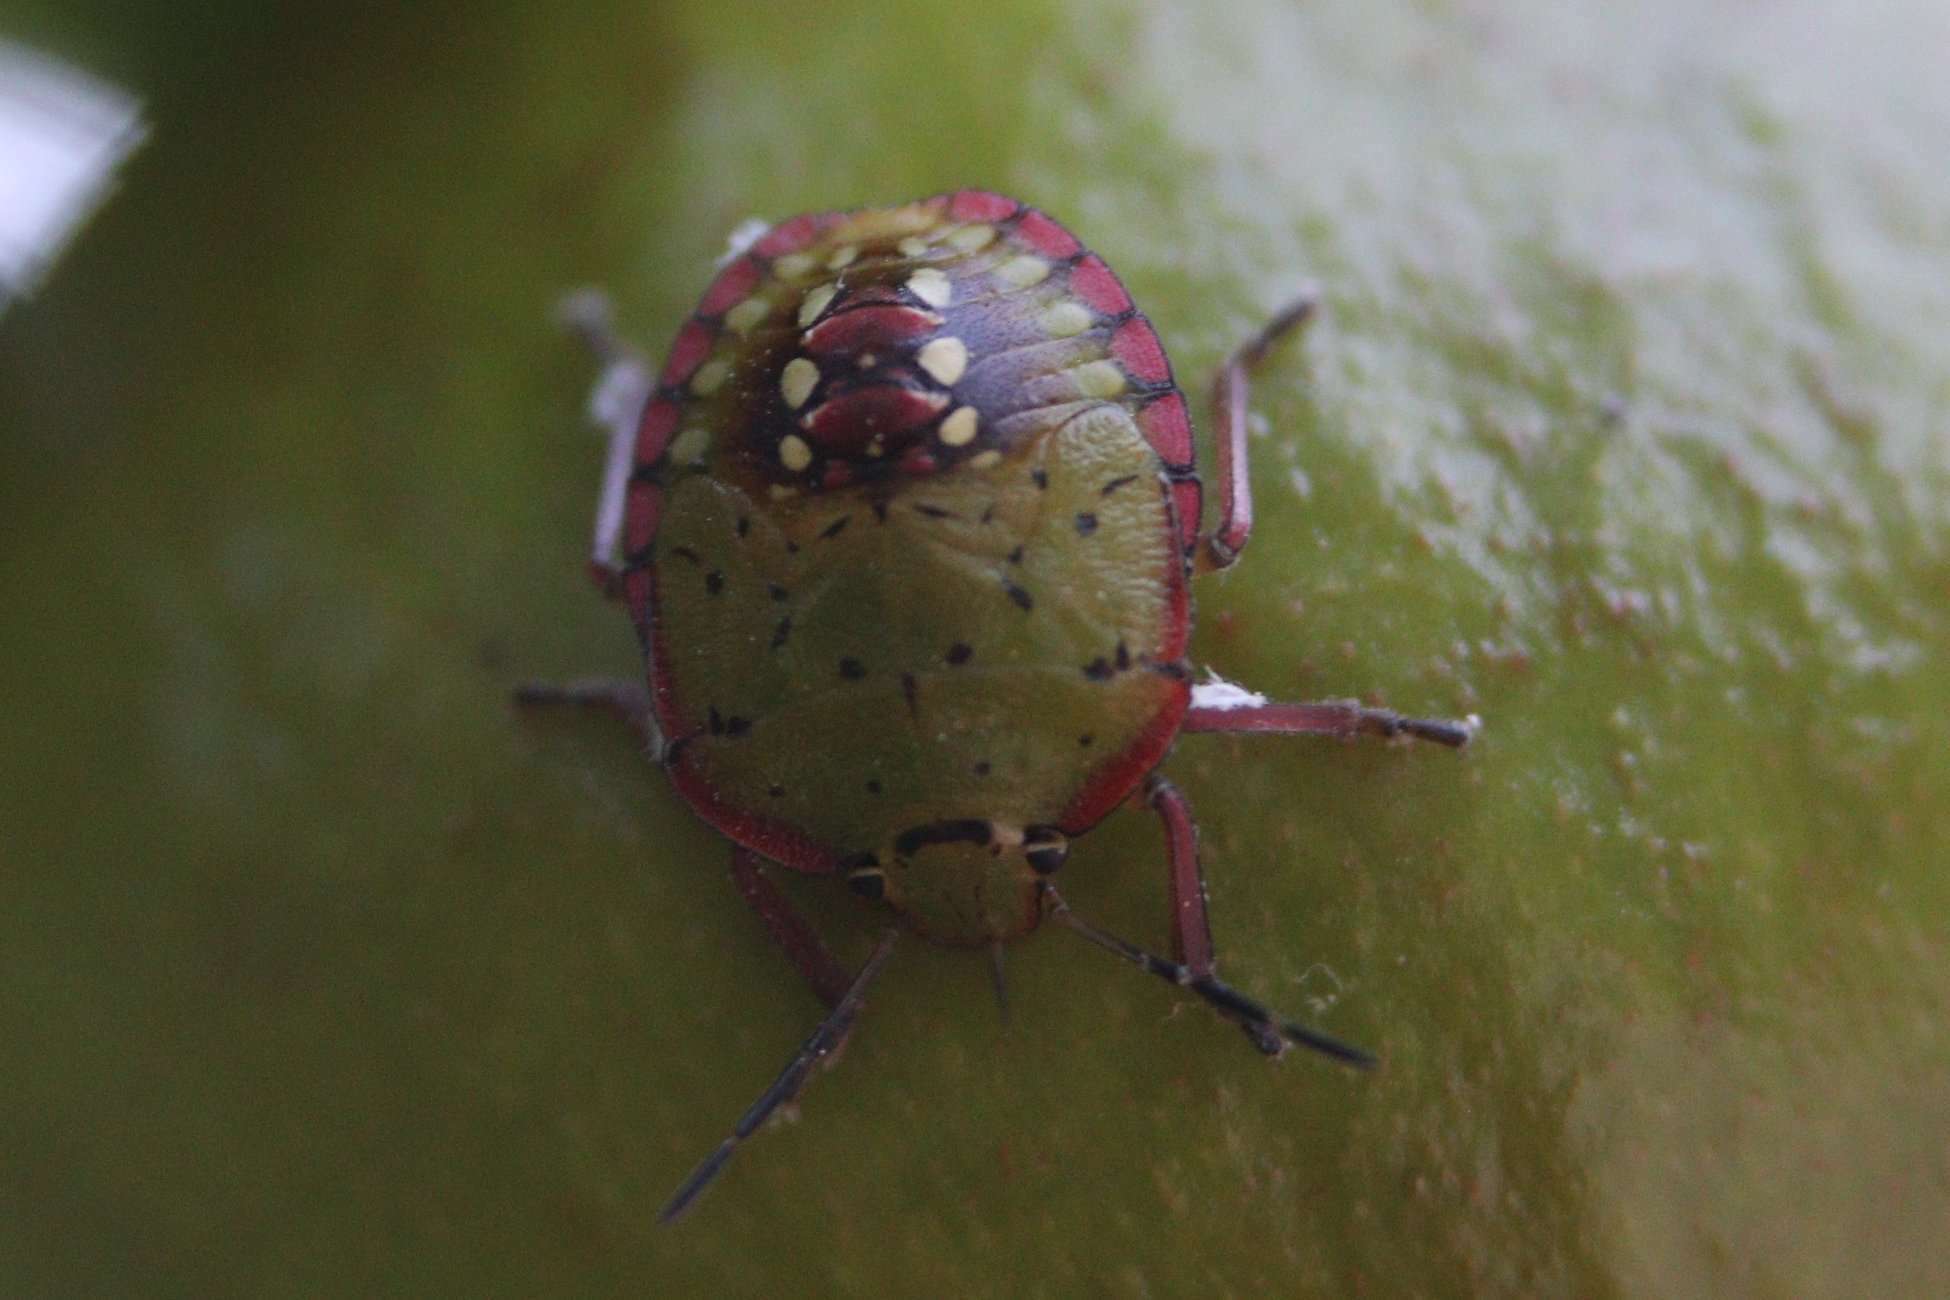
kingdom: Animalia
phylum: Arthropoda
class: Insecta
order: Hemiptera
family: Pentatomidae
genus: Nezara
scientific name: Nezara viridula
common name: Southern green stink bug
